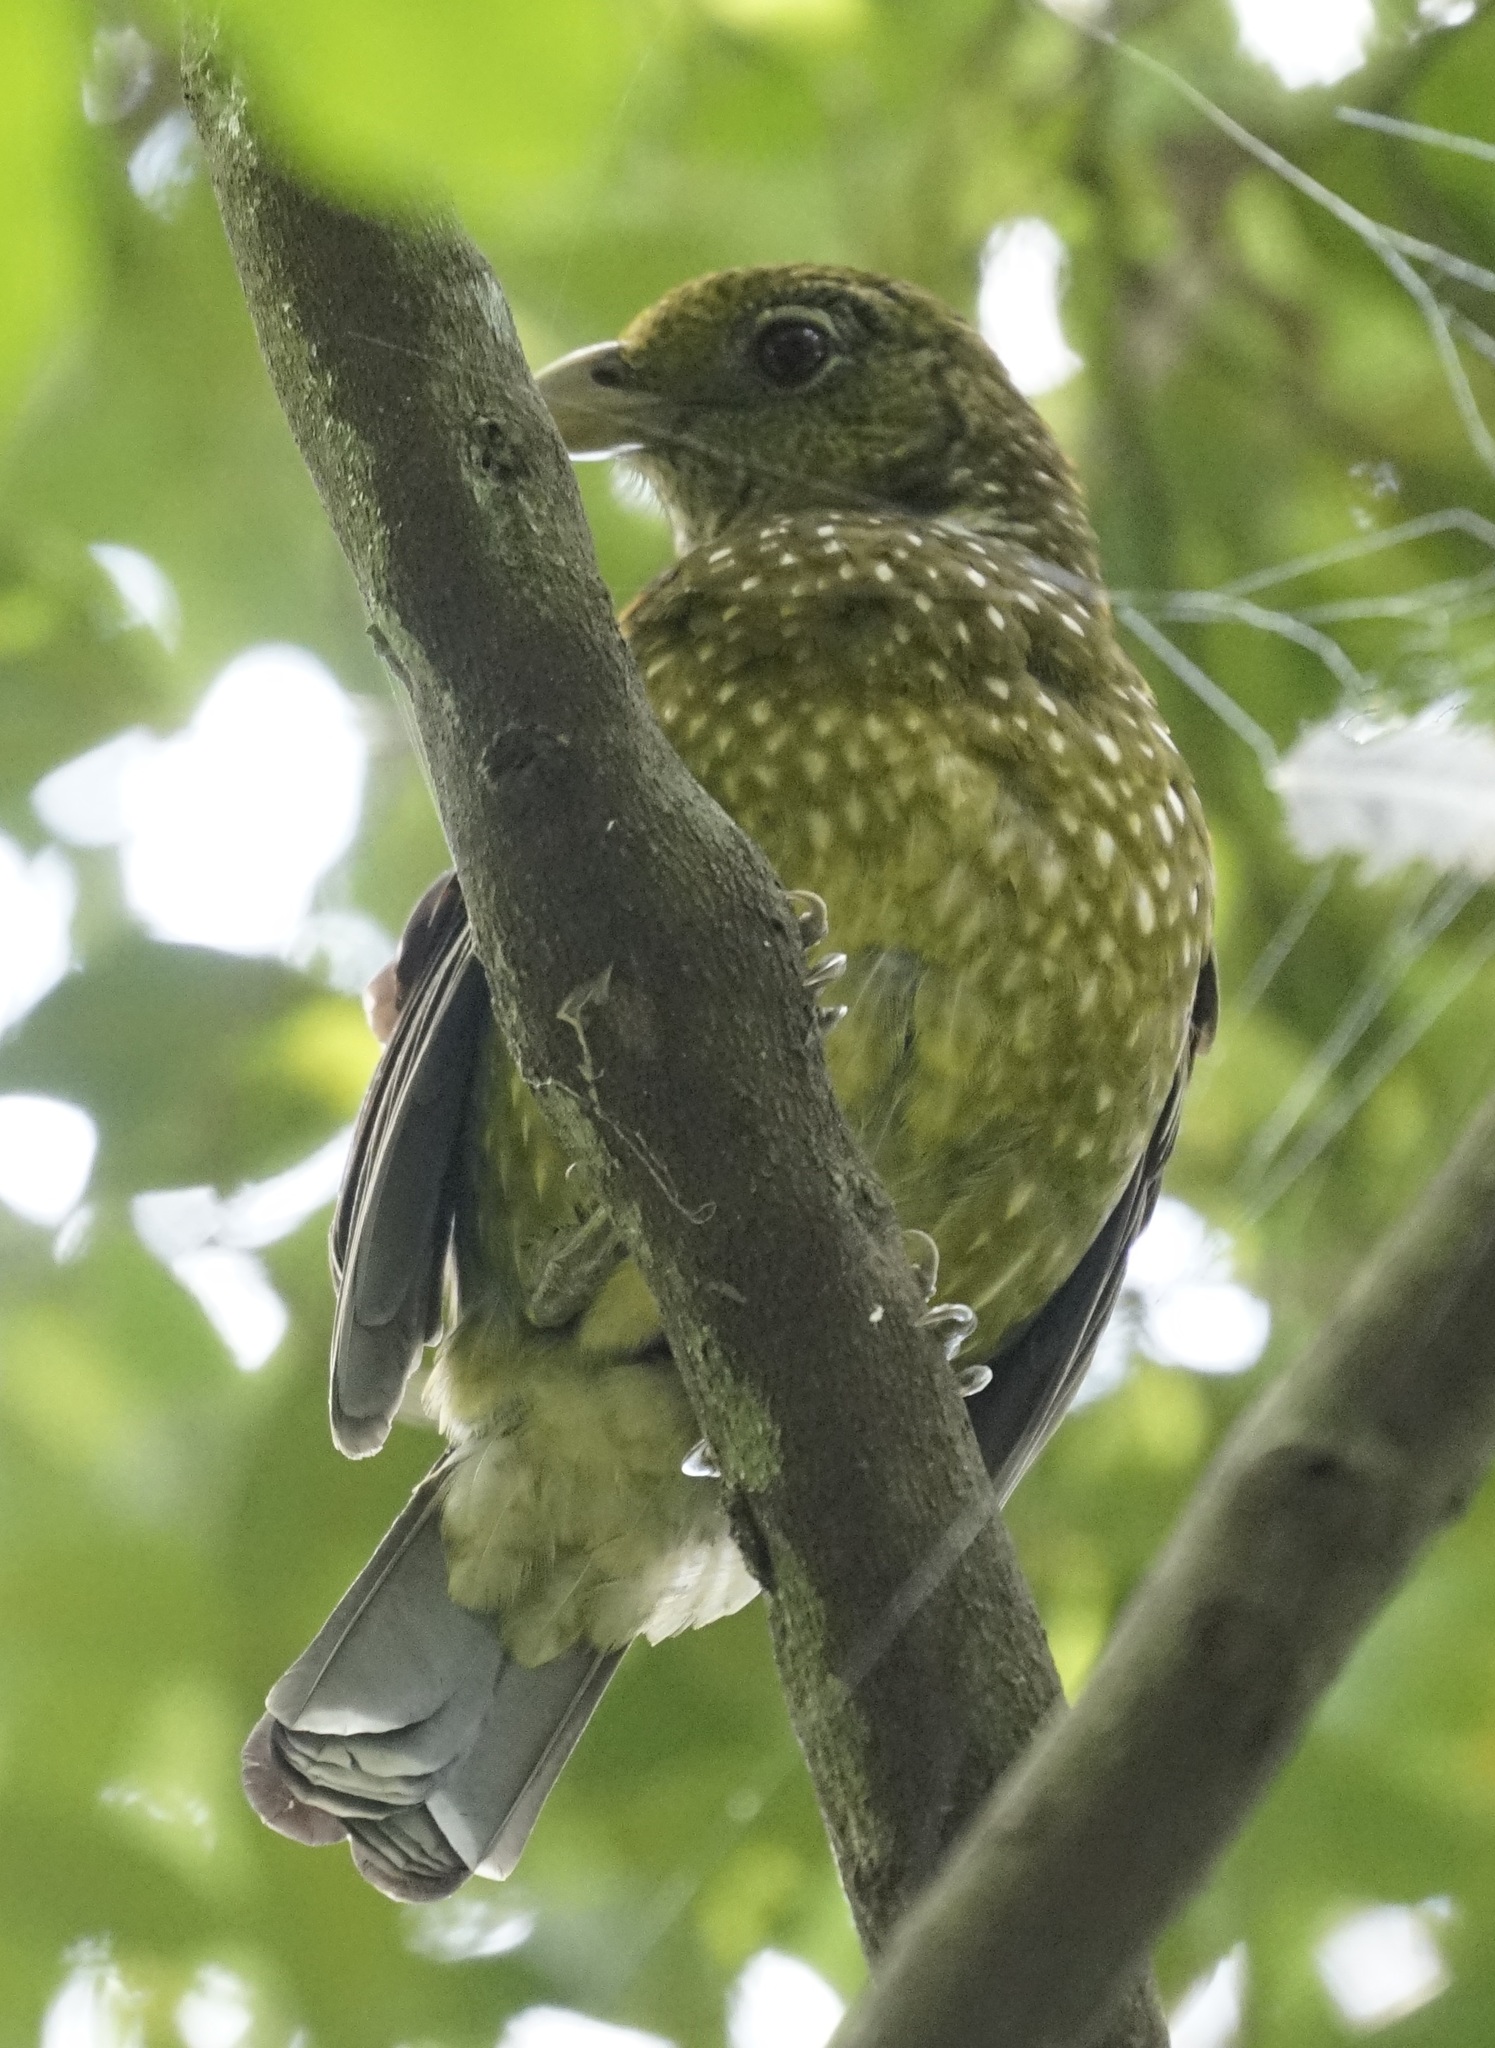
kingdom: Animalia
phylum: Chordata
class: Aves
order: Passeriformes
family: Ptilonorhynchidae
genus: Ailuroedus
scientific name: Ailuroedus crassirostris
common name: Green catbird
